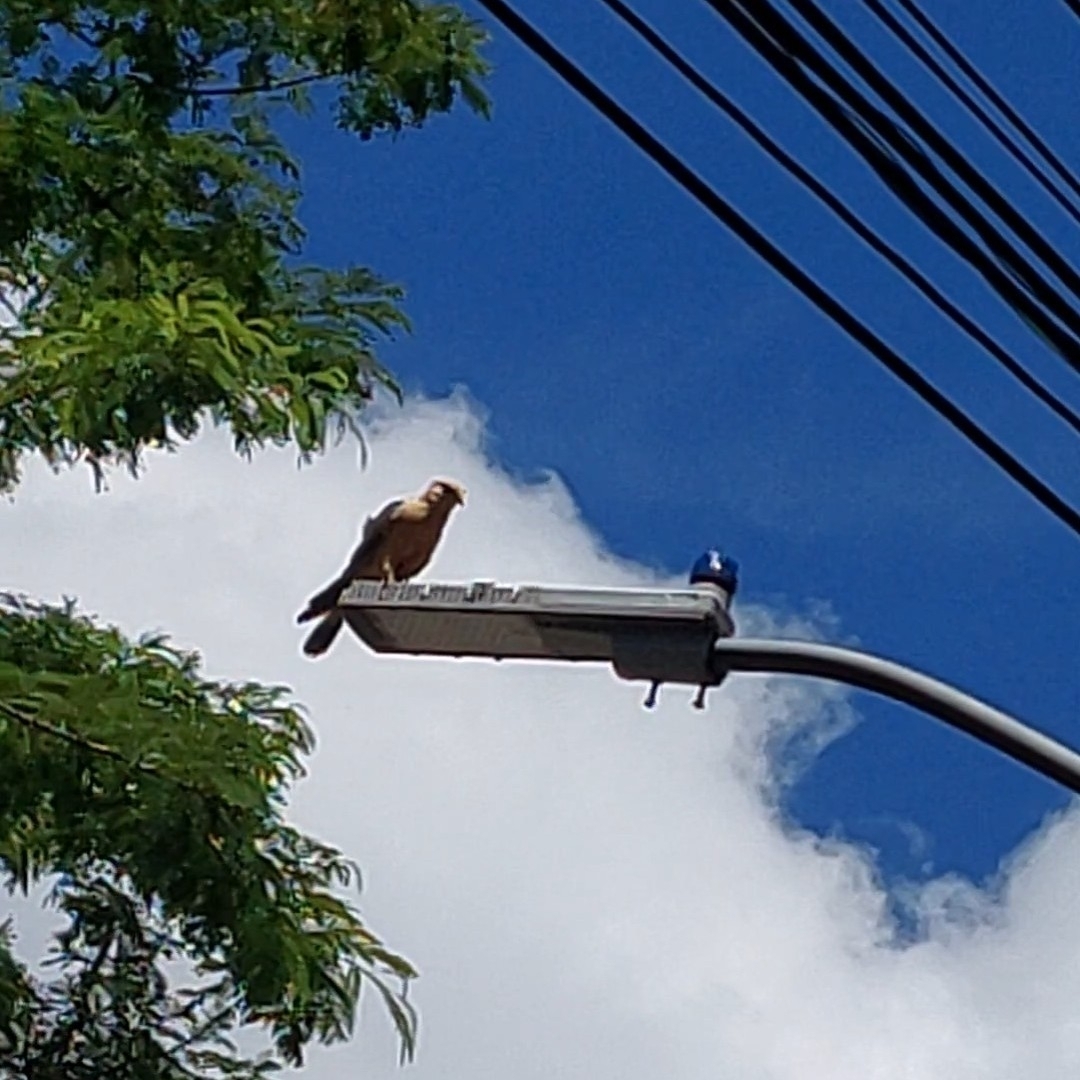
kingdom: Animalia
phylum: Chordata
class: Aves
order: Falconiformes
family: Falconidae
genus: Daptrius
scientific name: Daptrius
